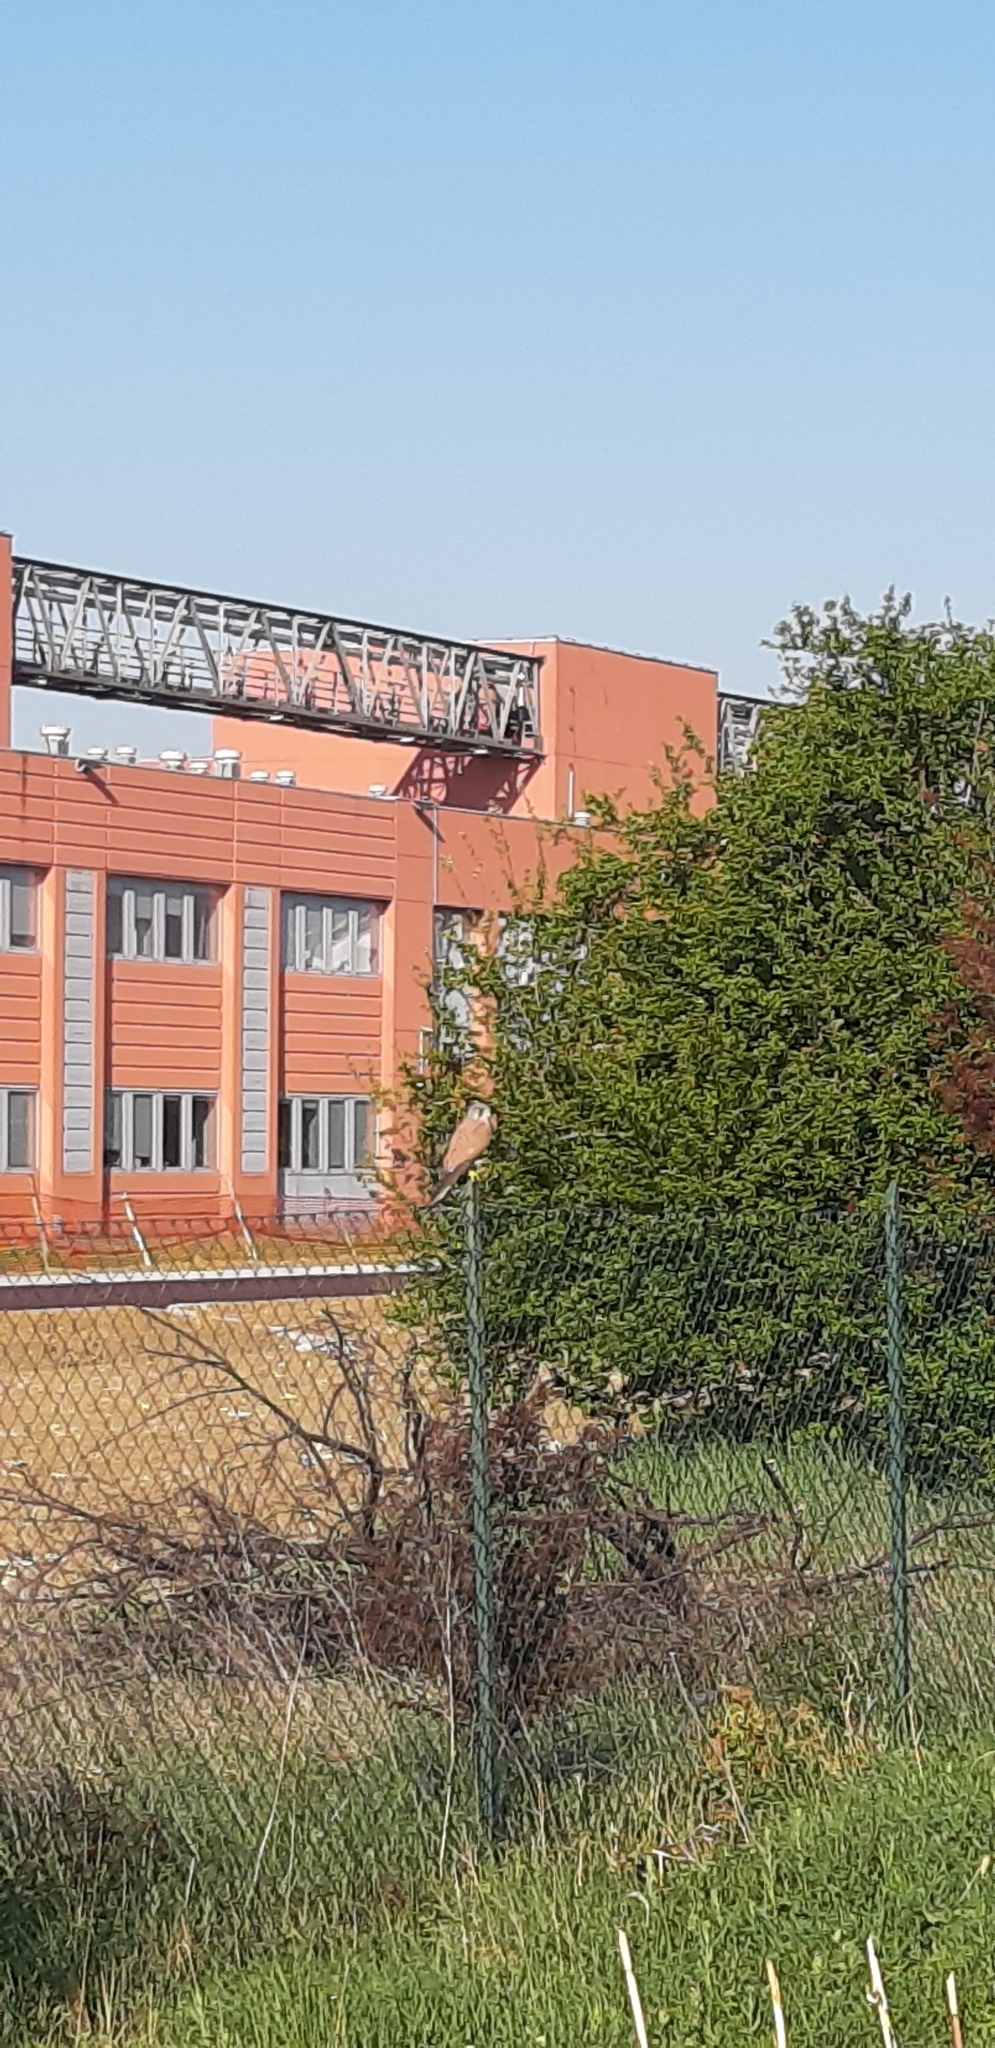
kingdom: Animalia
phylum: Chordata
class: Aves
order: Falconiformes
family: Falconidae
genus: Falco
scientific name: Falco tinnunculus
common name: Common kestrel
